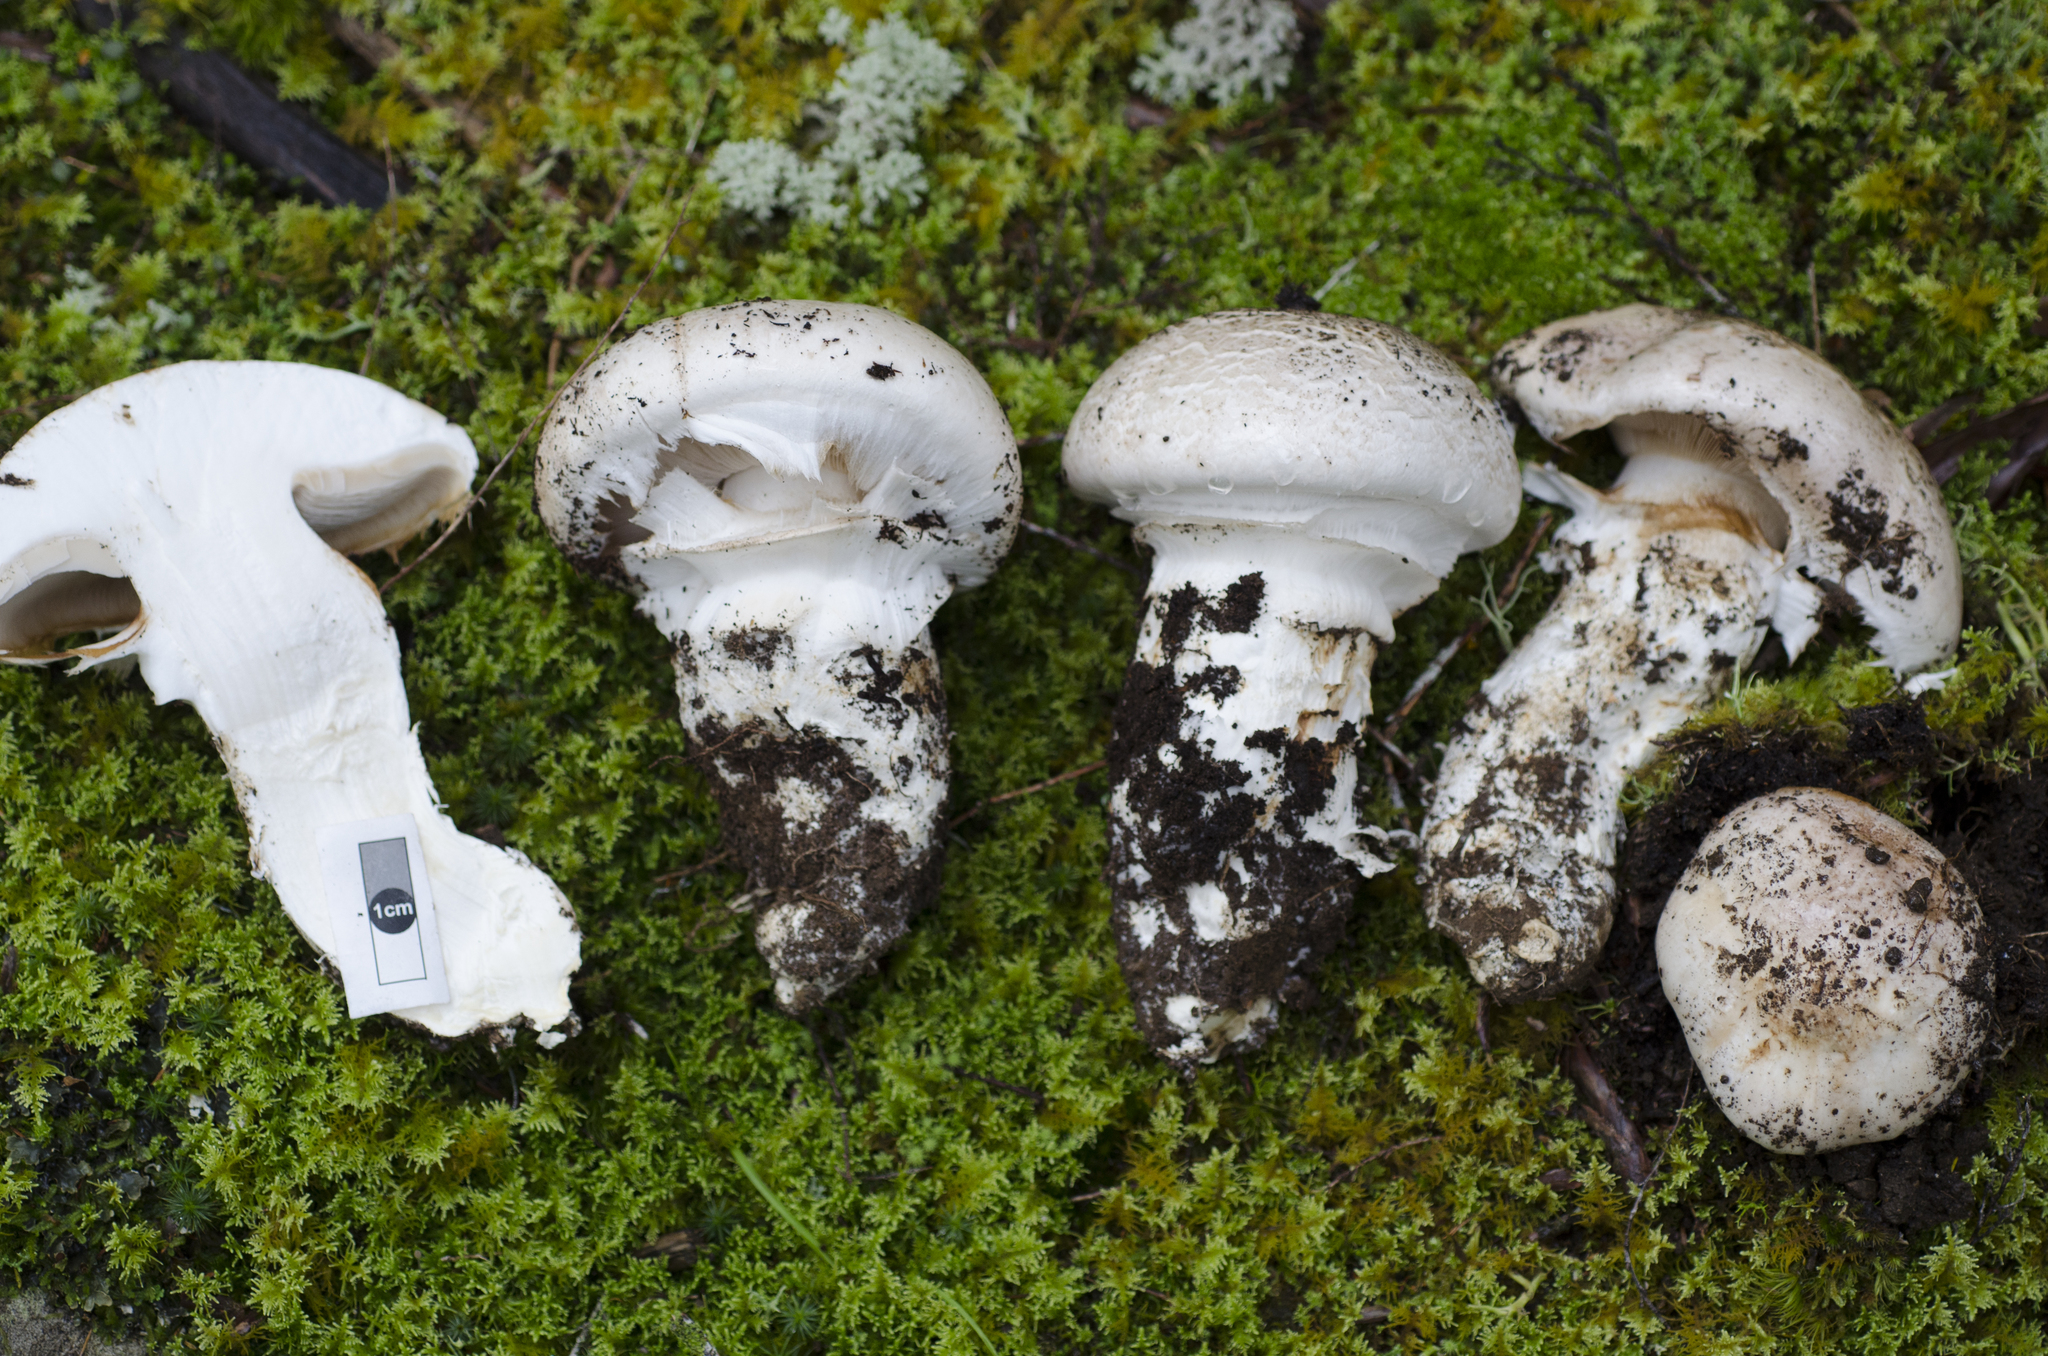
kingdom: Fungi
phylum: Basidiomycota
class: Agaricomycetes
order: Agaricales
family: Cortinariaceae
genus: Austrocortinarius
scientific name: Austrocortinarius australiensis
